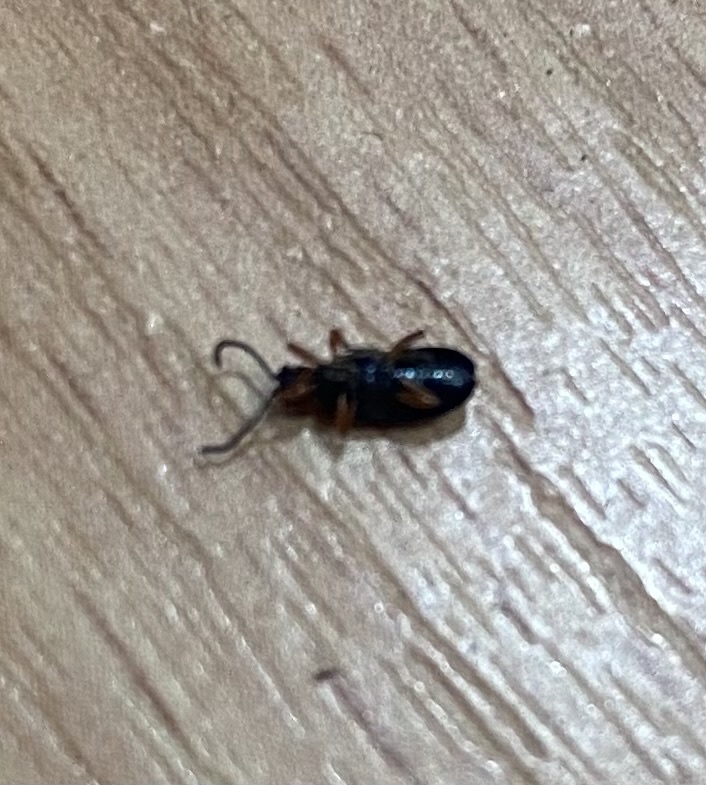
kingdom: Animalia
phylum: Arthropoda
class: Insecta
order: Coleoptera
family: Chrysomelidae
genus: Oulema
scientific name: Oulema
